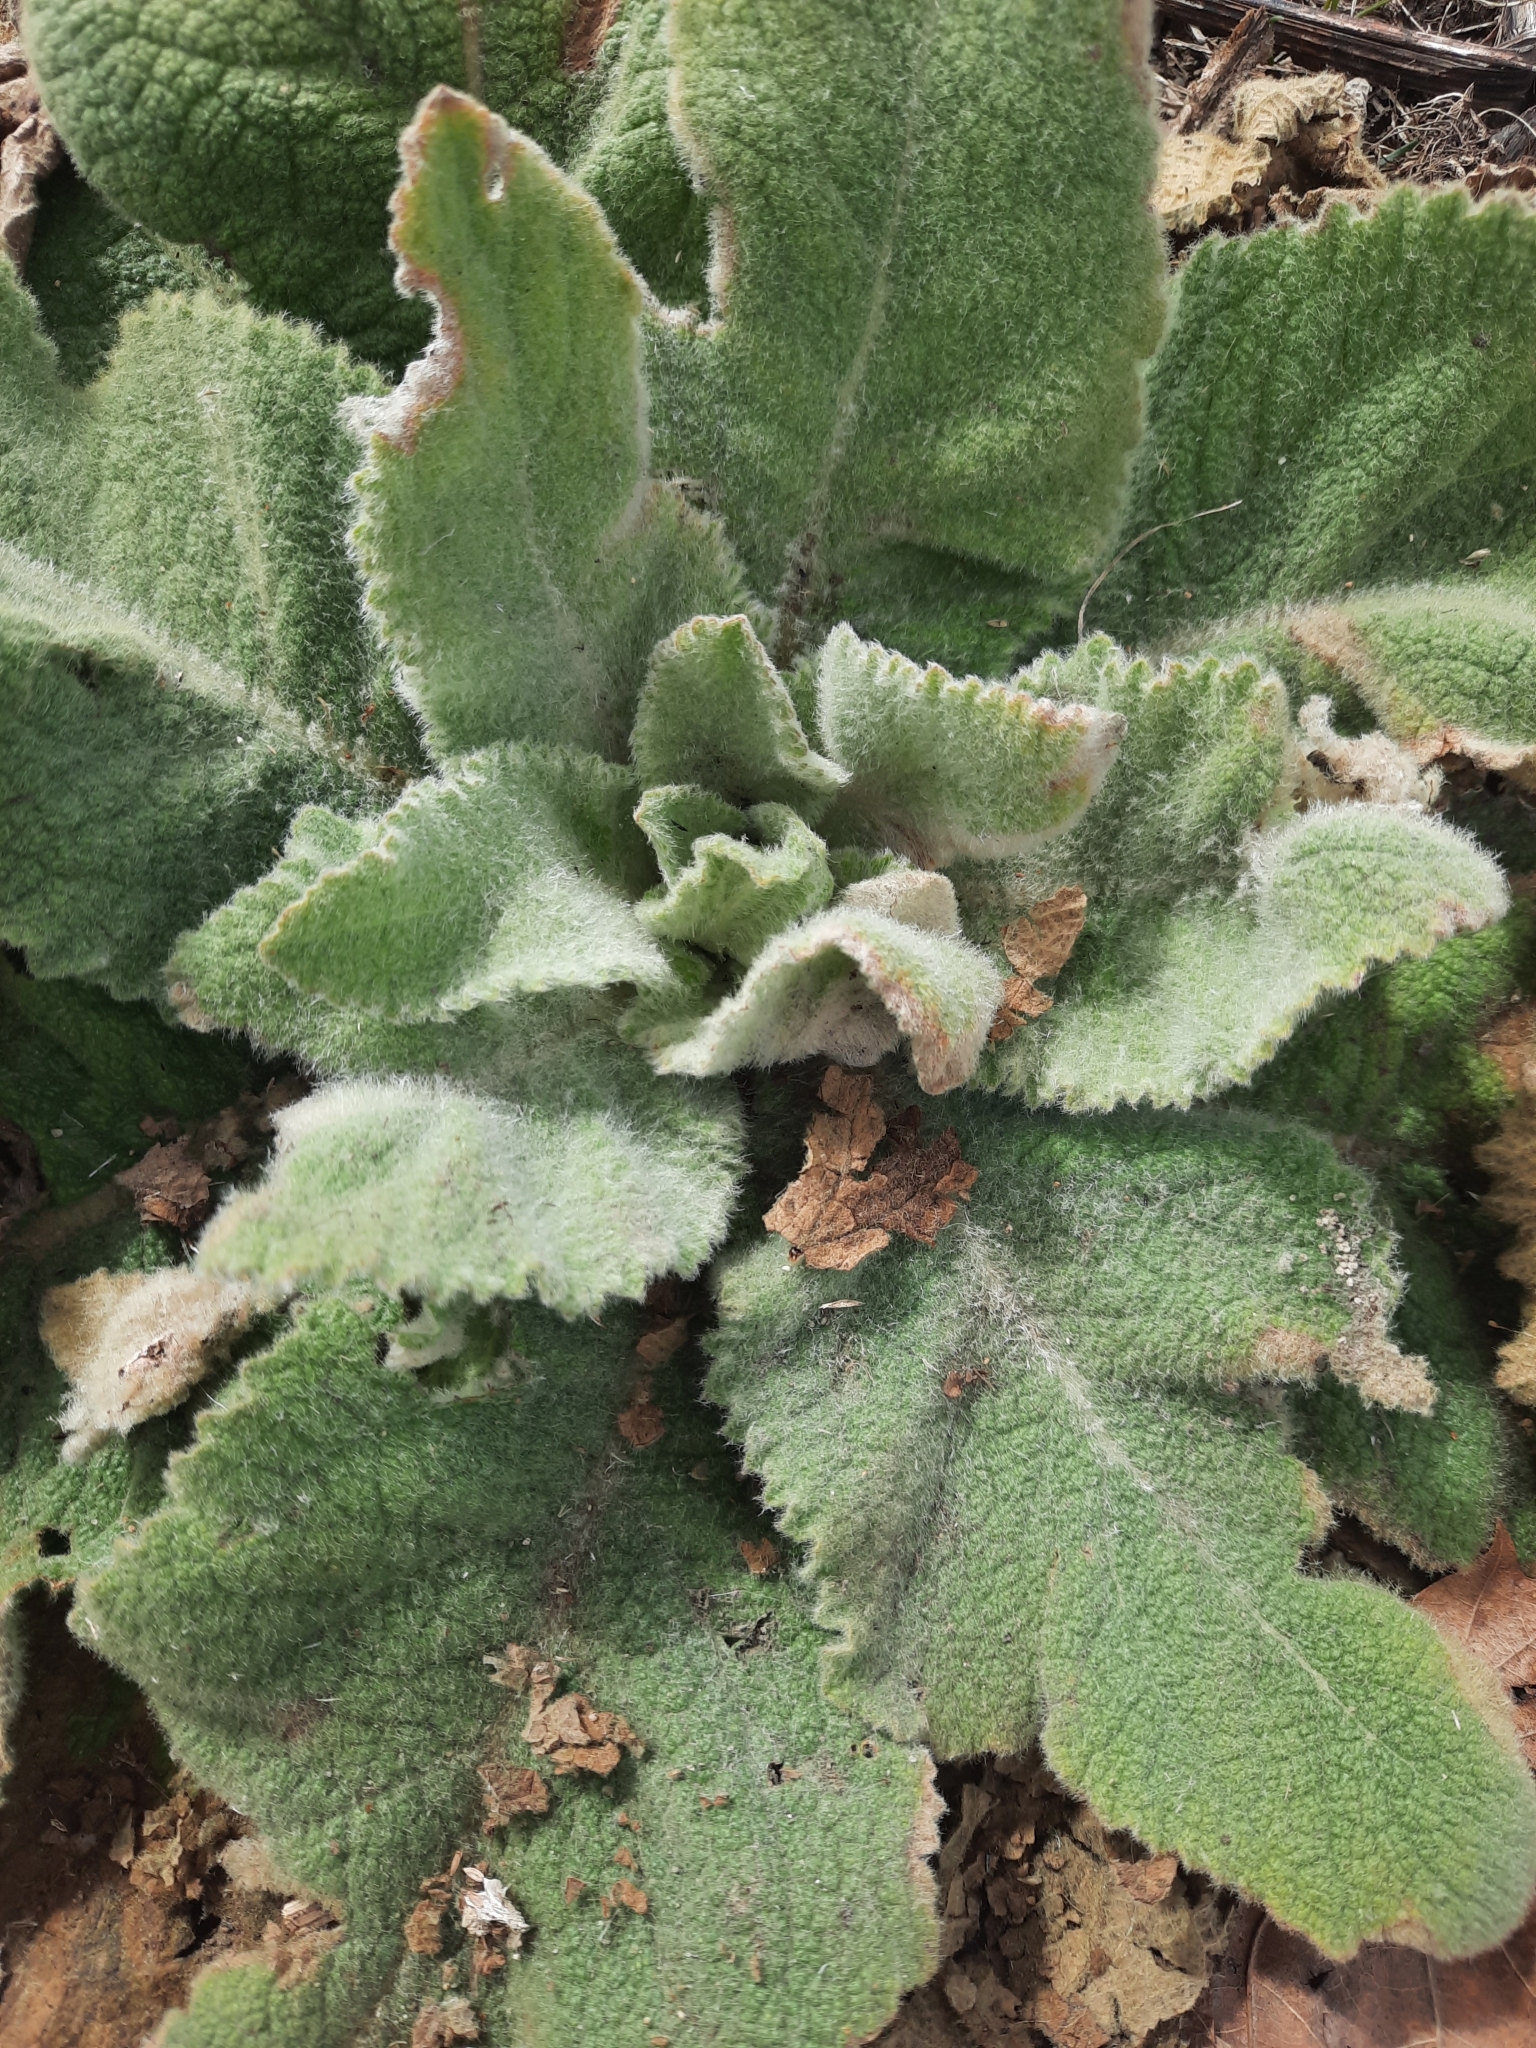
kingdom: Plantae
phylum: Tracheophyta
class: Magnoliopsida
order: Lamiales
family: Scrophulariaceae
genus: Verbascum
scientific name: Verbascum thapsus
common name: Common mullein
